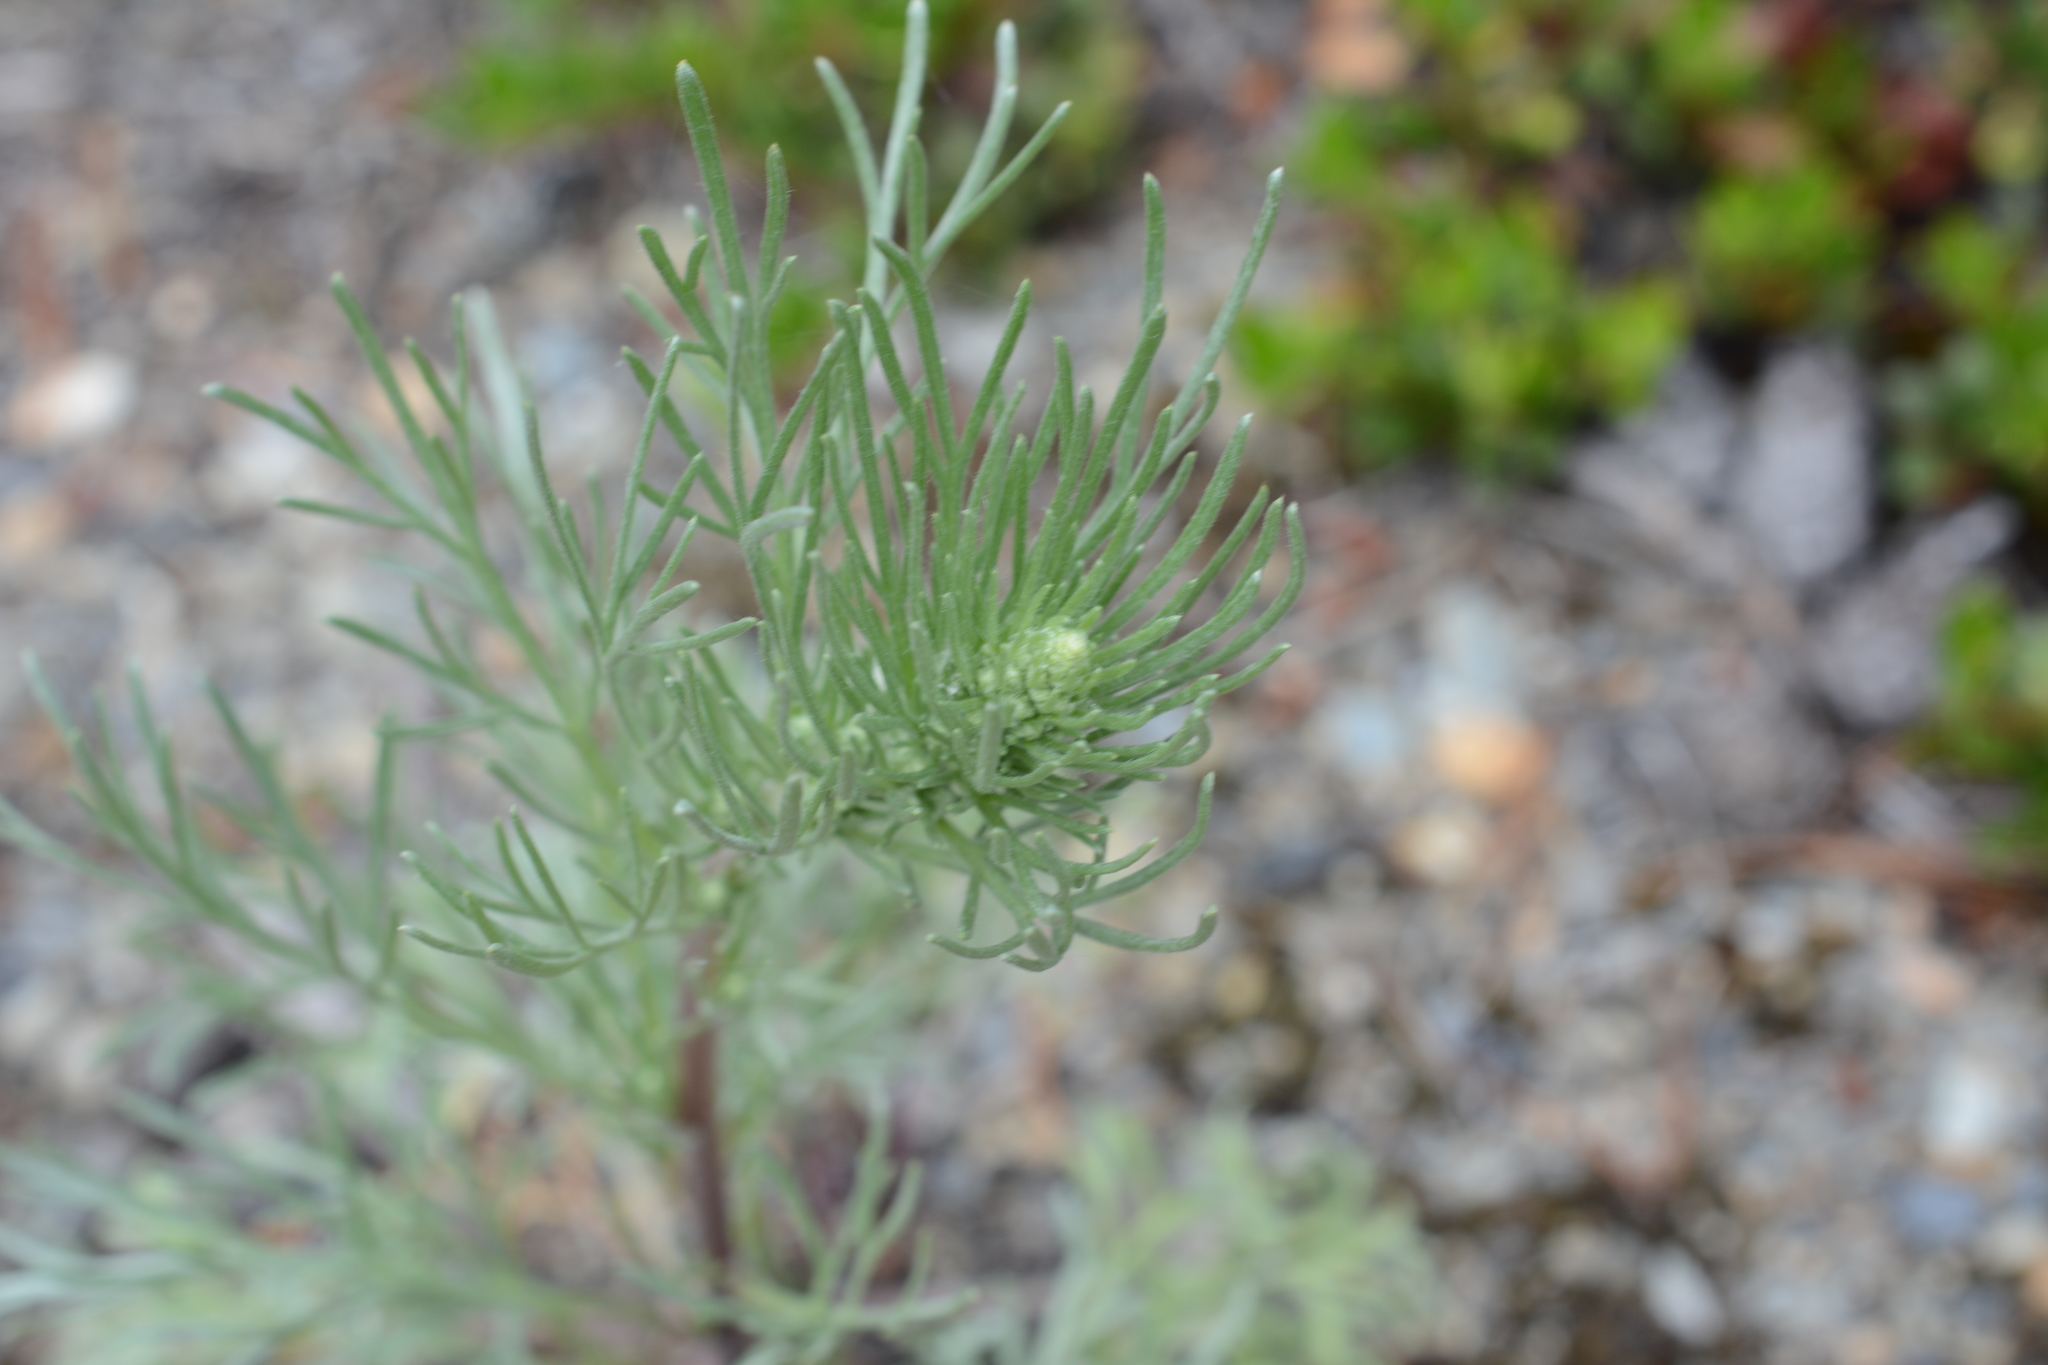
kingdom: Plantae
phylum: Tracheophyta
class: Magnoliopsida
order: Asterales
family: Asteraceae
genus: Artemisia
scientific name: Artemisia campestris
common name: Field wormwood
